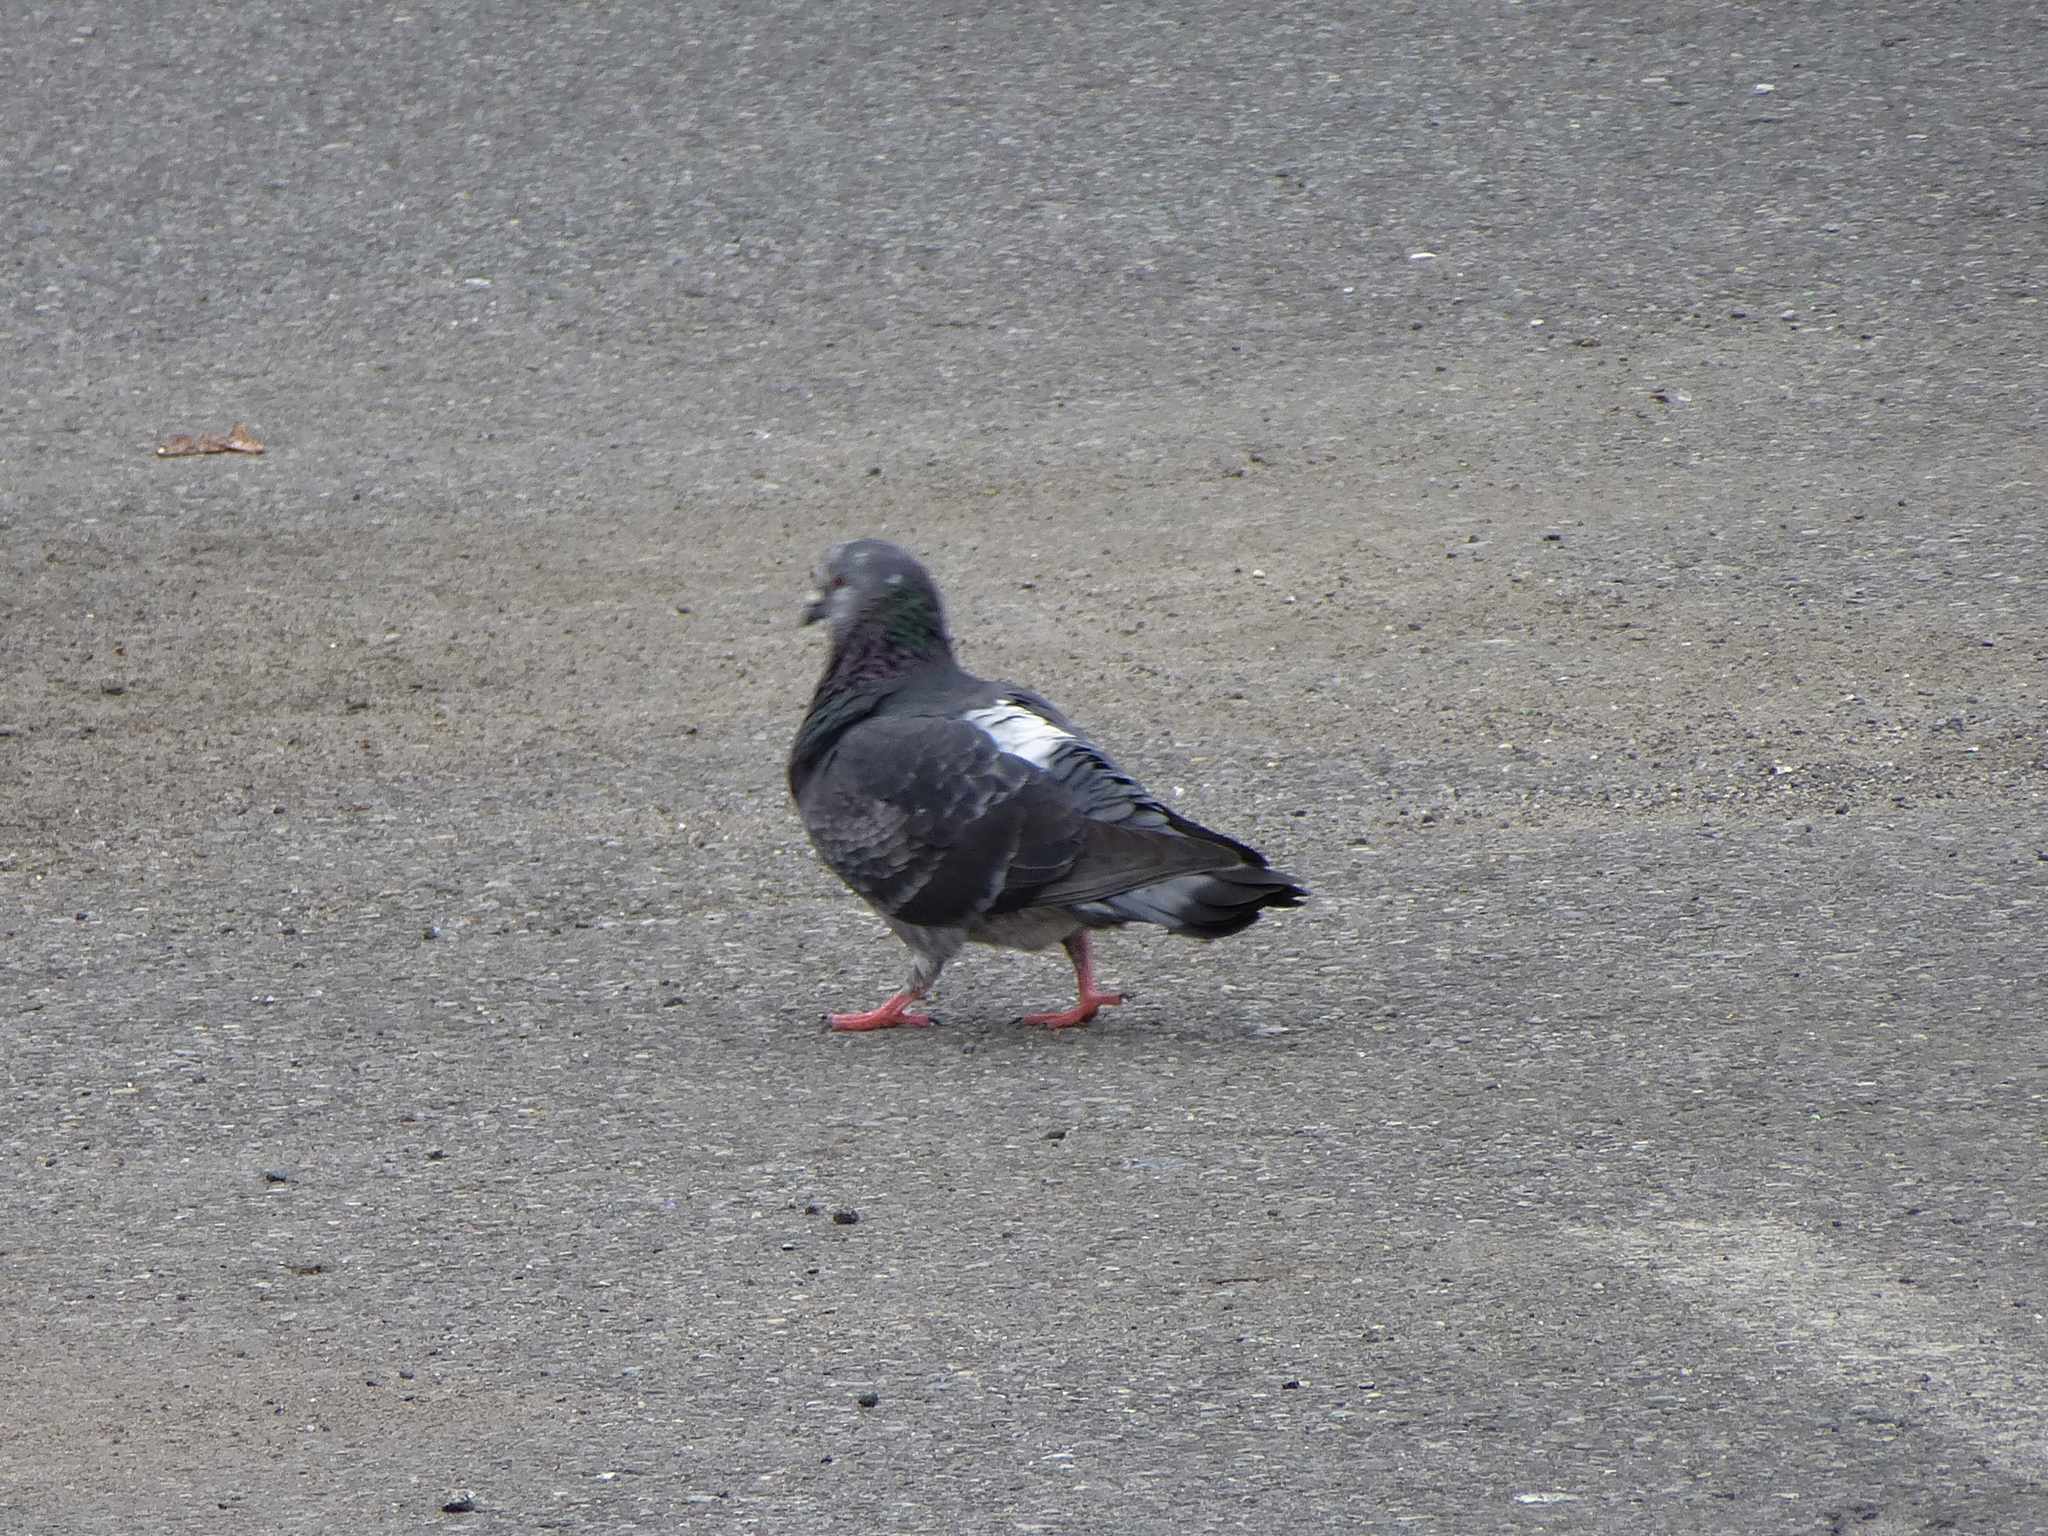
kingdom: Animalia
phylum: Chordata
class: Aves
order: Columbiformes
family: Columbidae
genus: Columba
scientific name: Columba livia
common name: Rock pigeon
